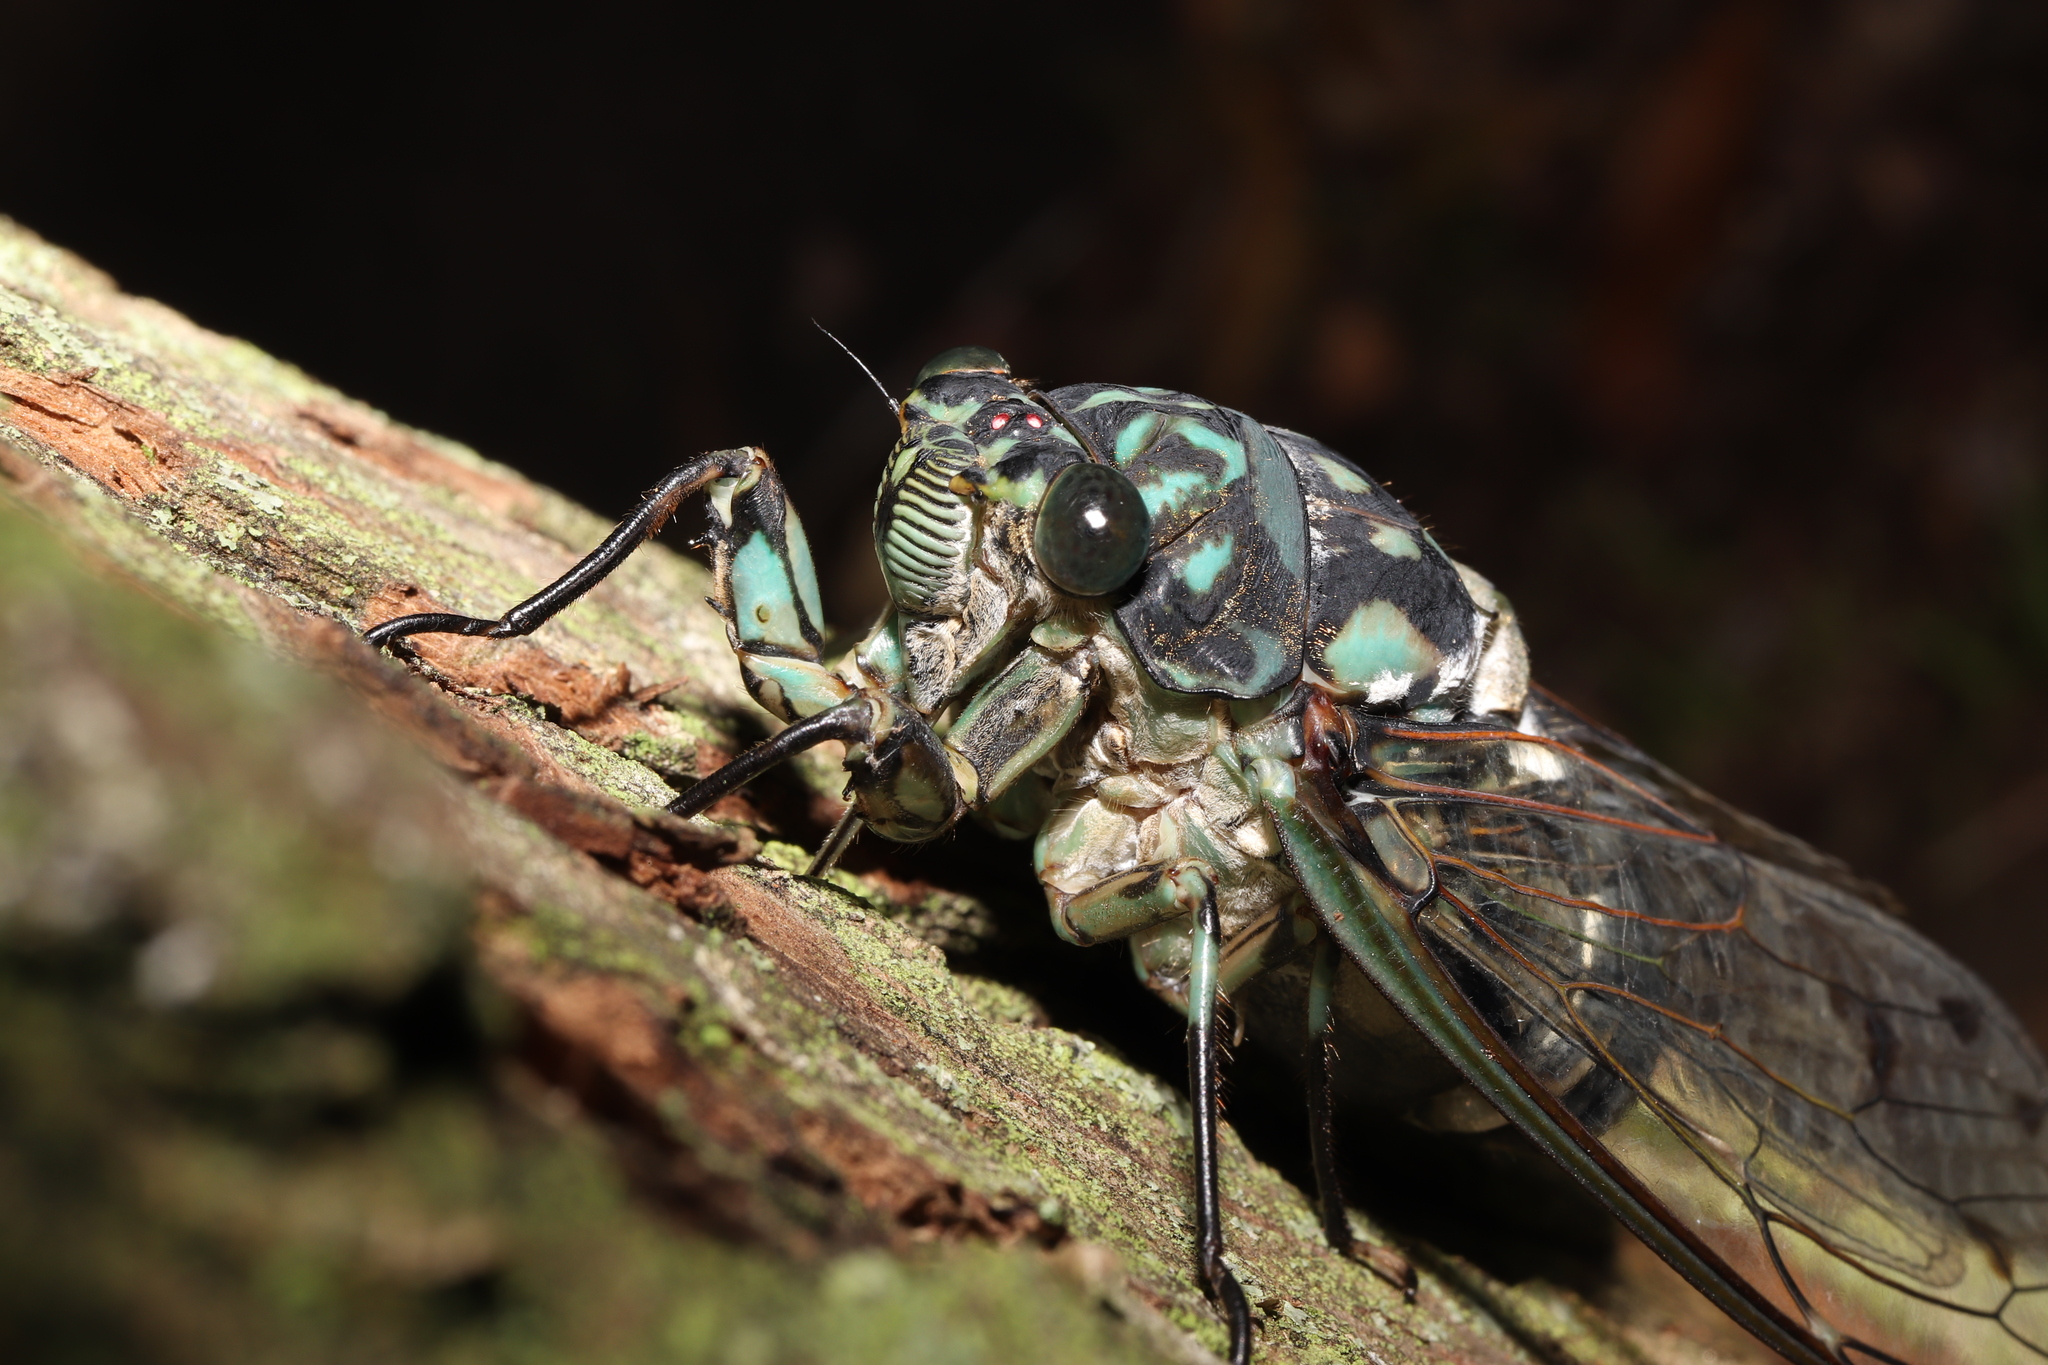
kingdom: Animalia
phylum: Arthropoda
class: Insecta
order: Hemiptera
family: Cicadidae
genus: Hyalessa
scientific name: Hyalessa maculaticollis
